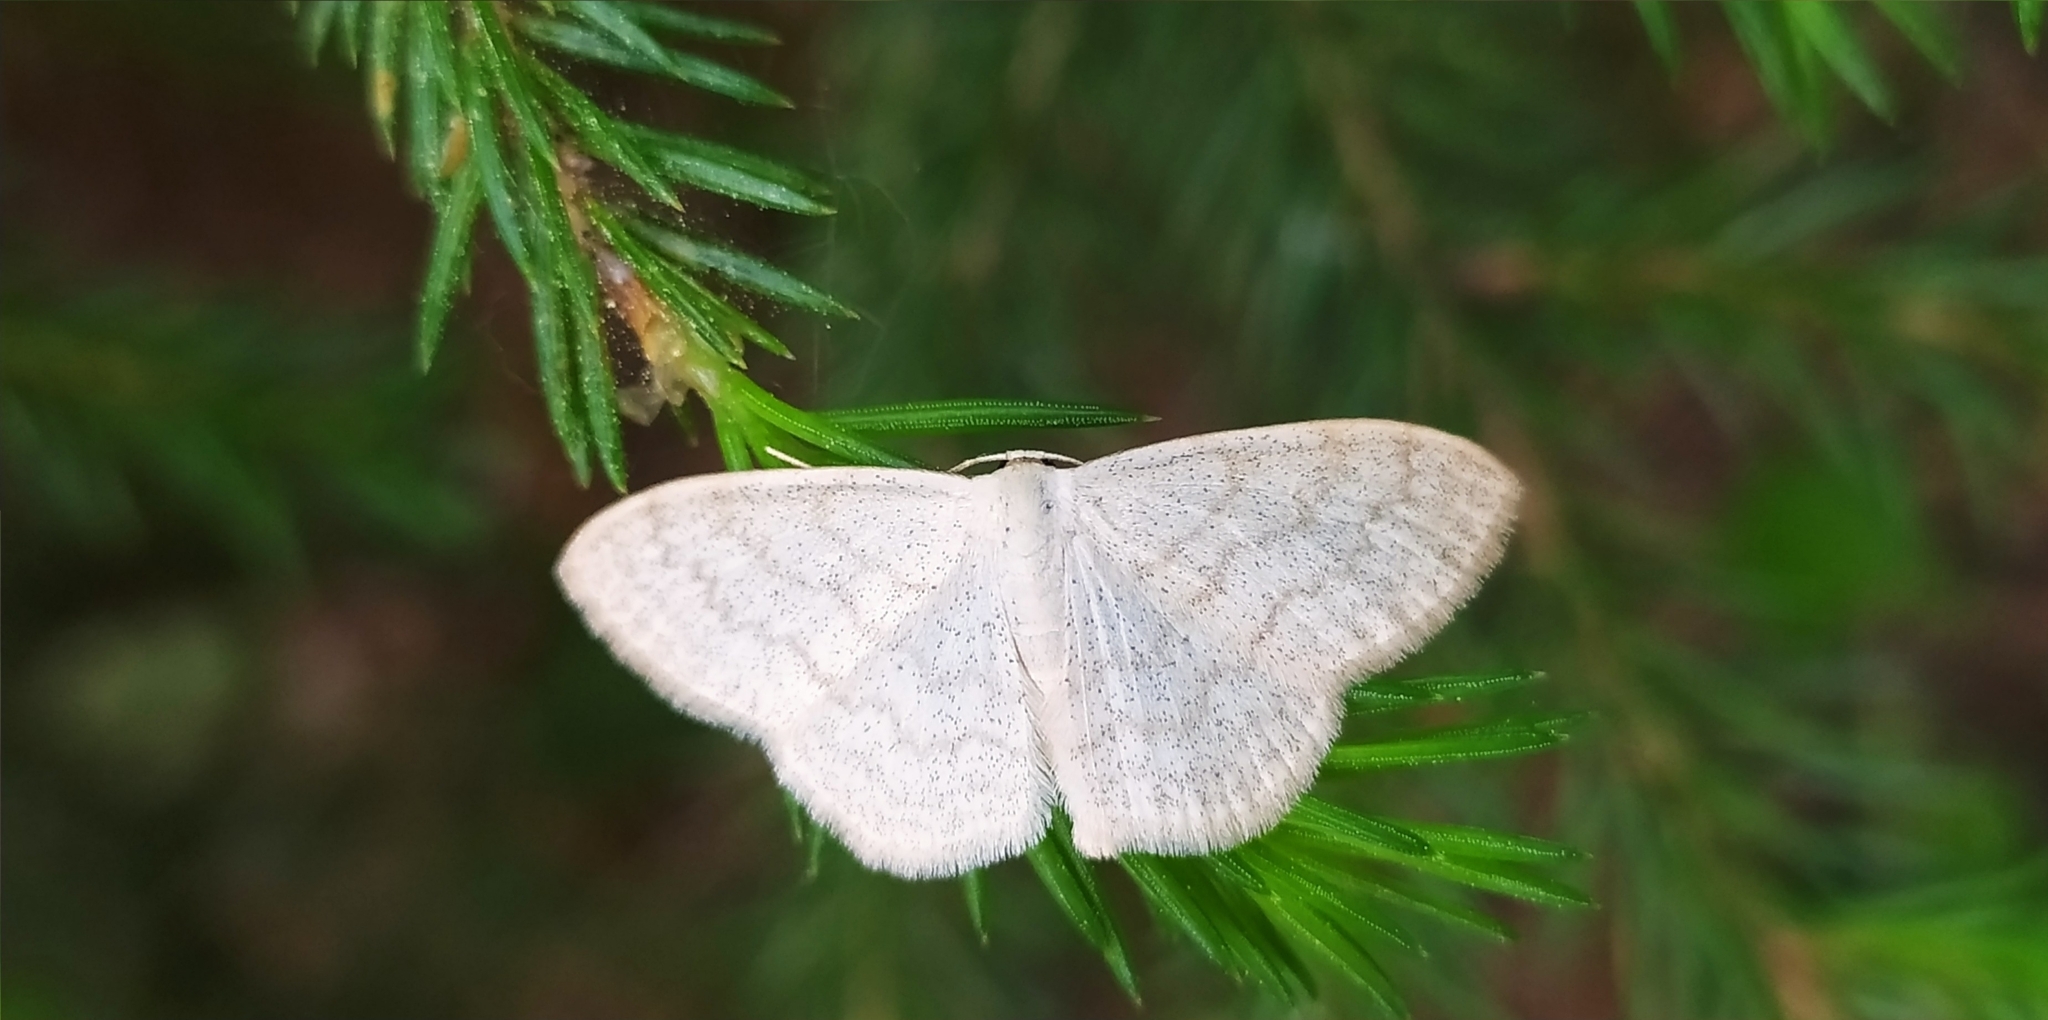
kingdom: Animalia
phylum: Arthropoda
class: Insecta
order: Lepidoptera
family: Geometridae
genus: Scopula
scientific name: Scopula floslactata
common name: Cream wave
